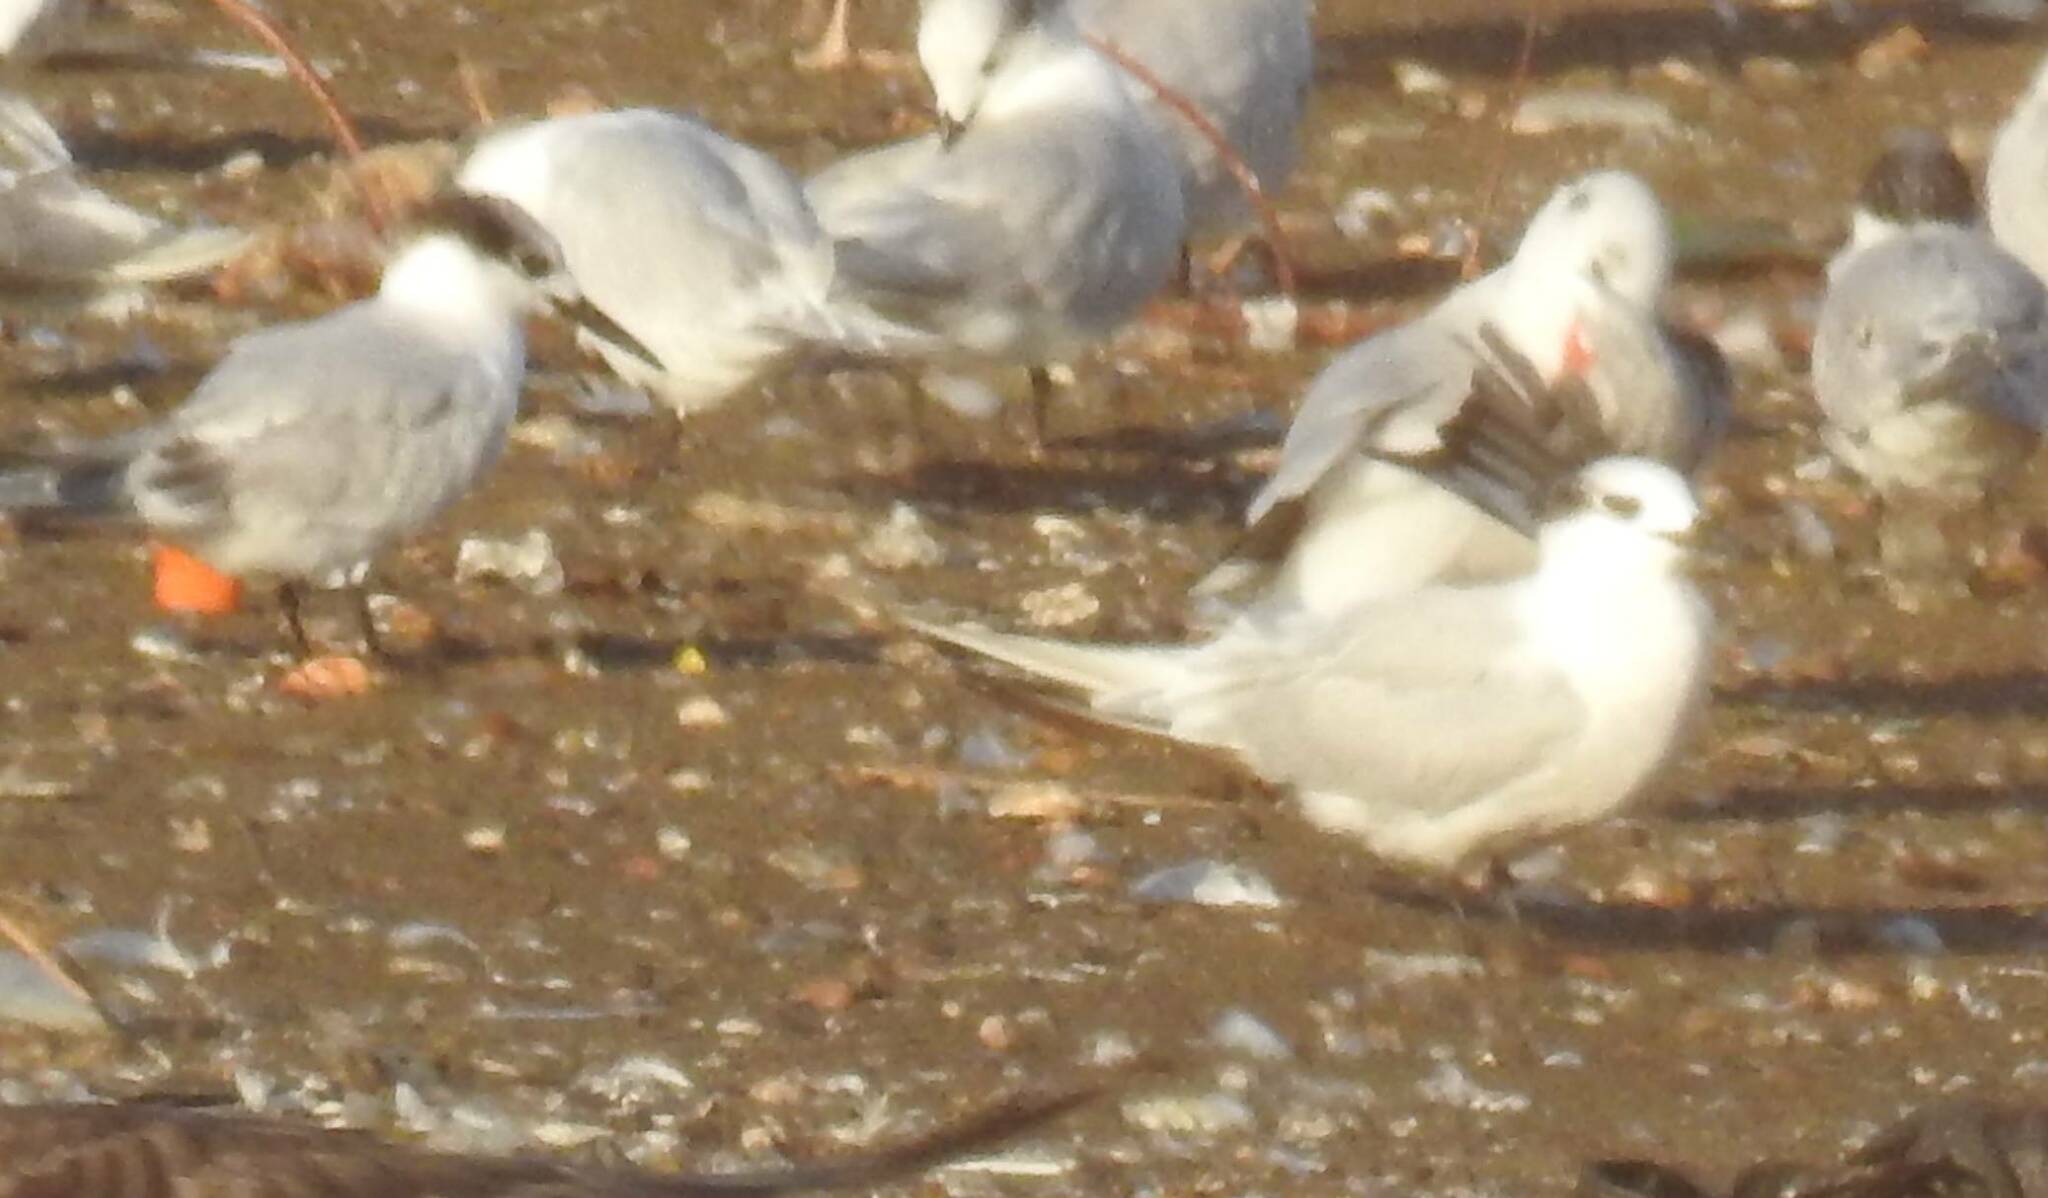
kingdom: Animalia
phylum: Chordata
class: Aves
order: Charadriiformes
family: Laridae
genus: Thalasseus
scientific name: Thalasseus sandvicensis
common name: Sandwich tern
